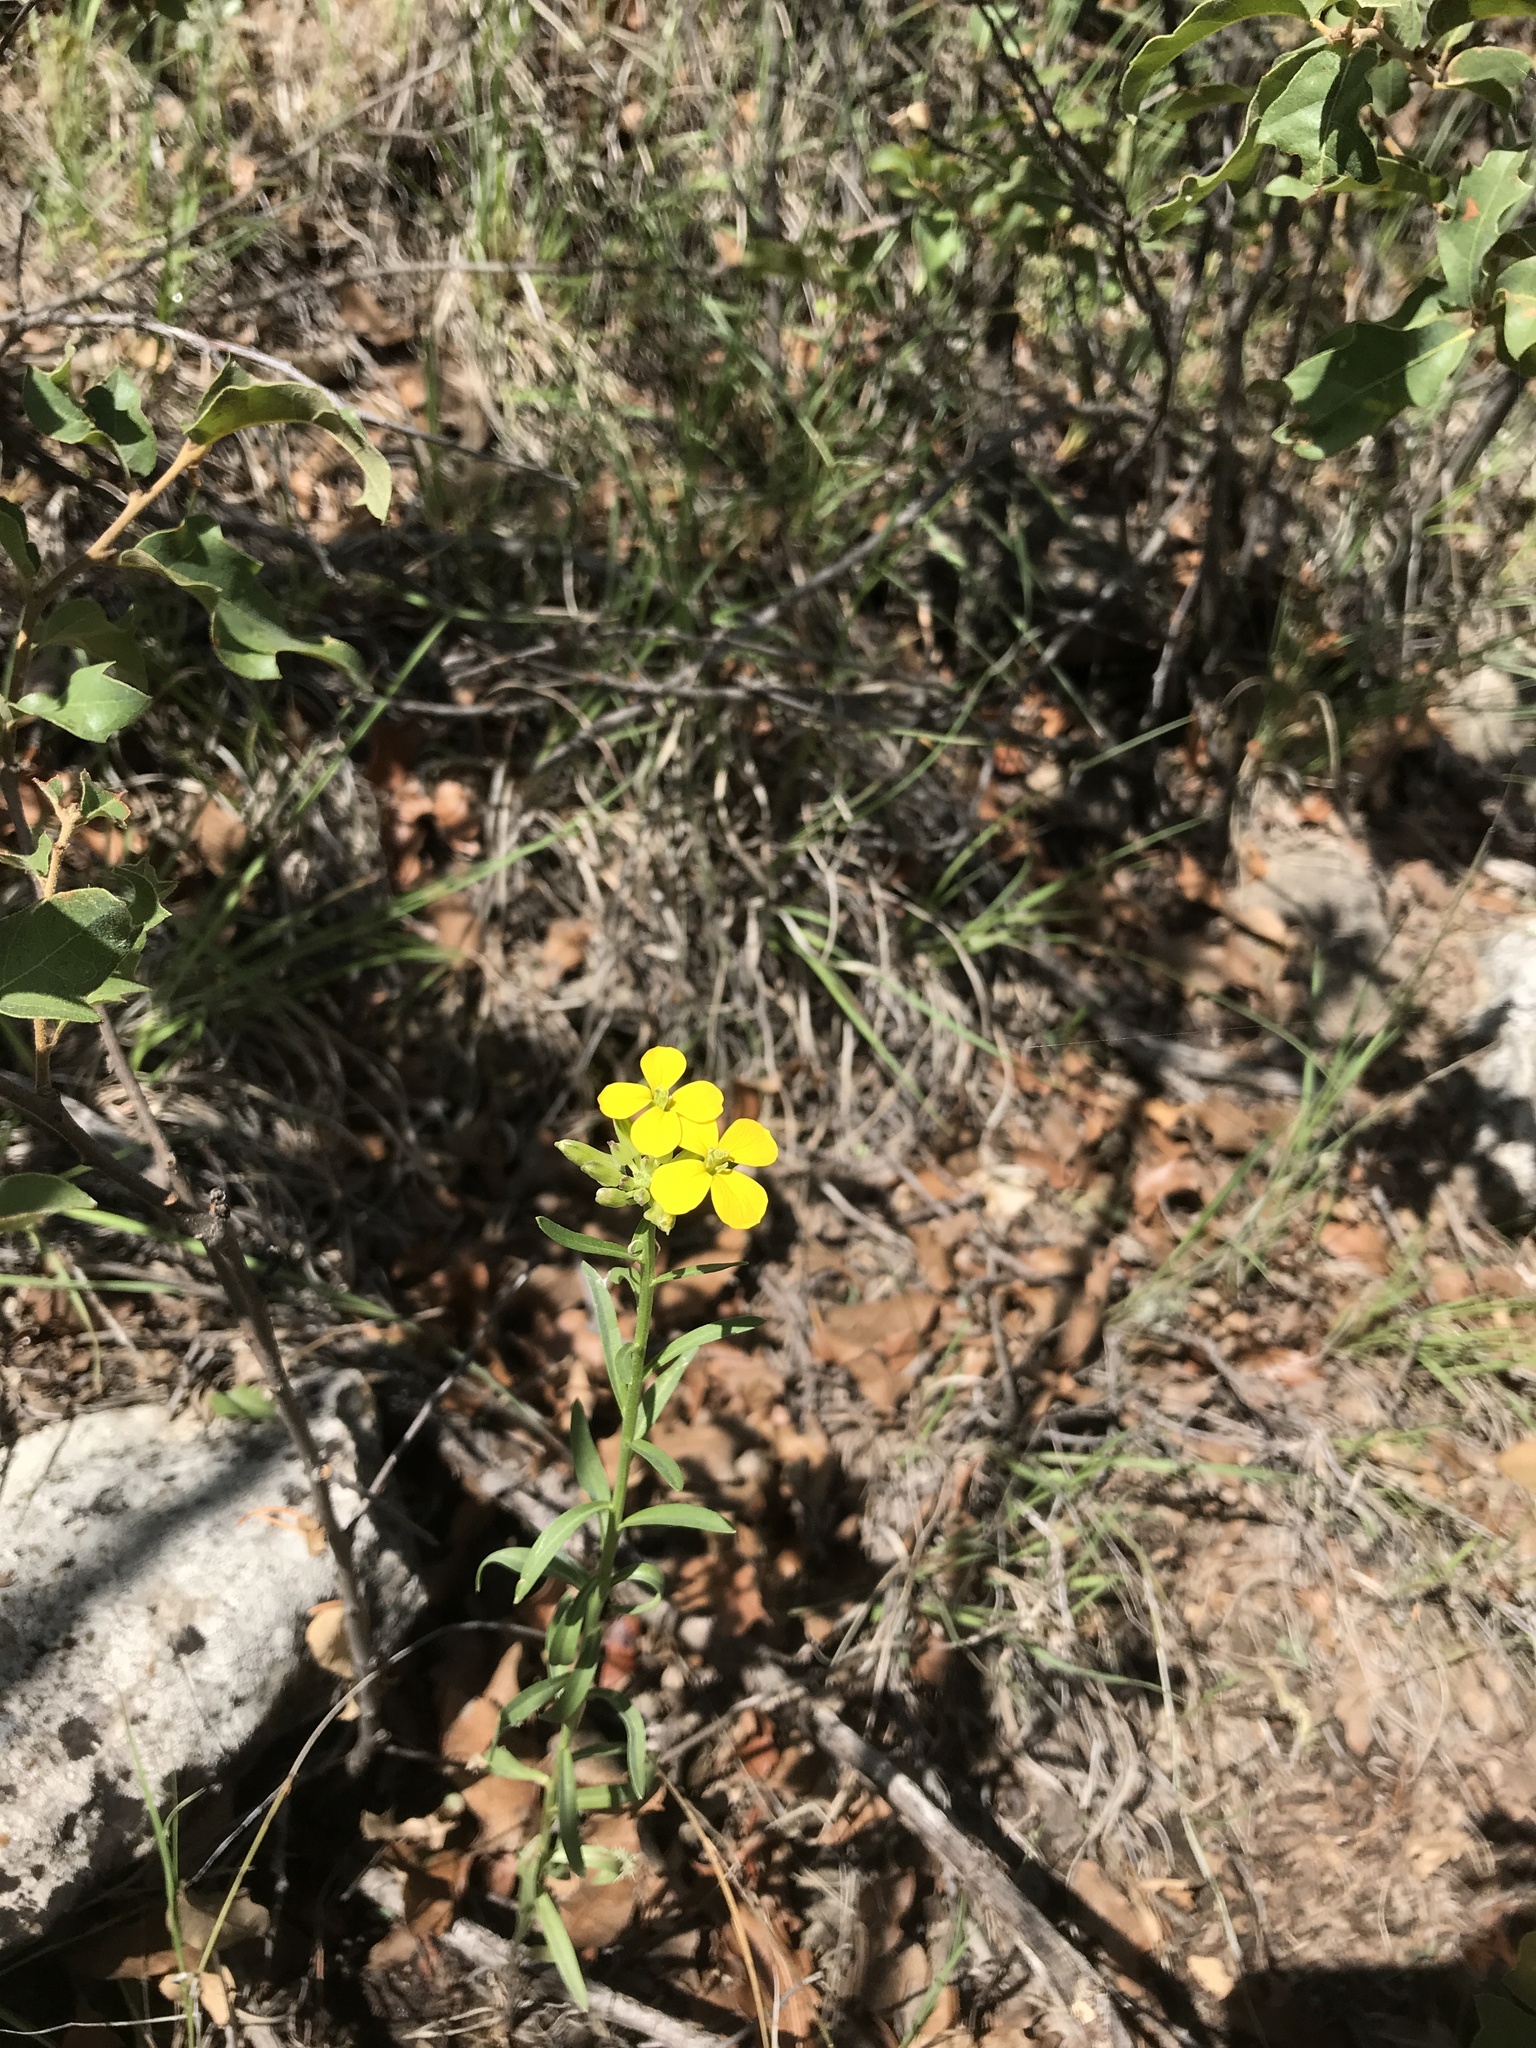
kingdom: Plantae
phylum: Tracheophyta
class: Magnoliopsida
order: Brassicales
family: Brassicaceae
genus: Erysimum
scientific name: Erysimum capitatum
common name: Western wallflower
